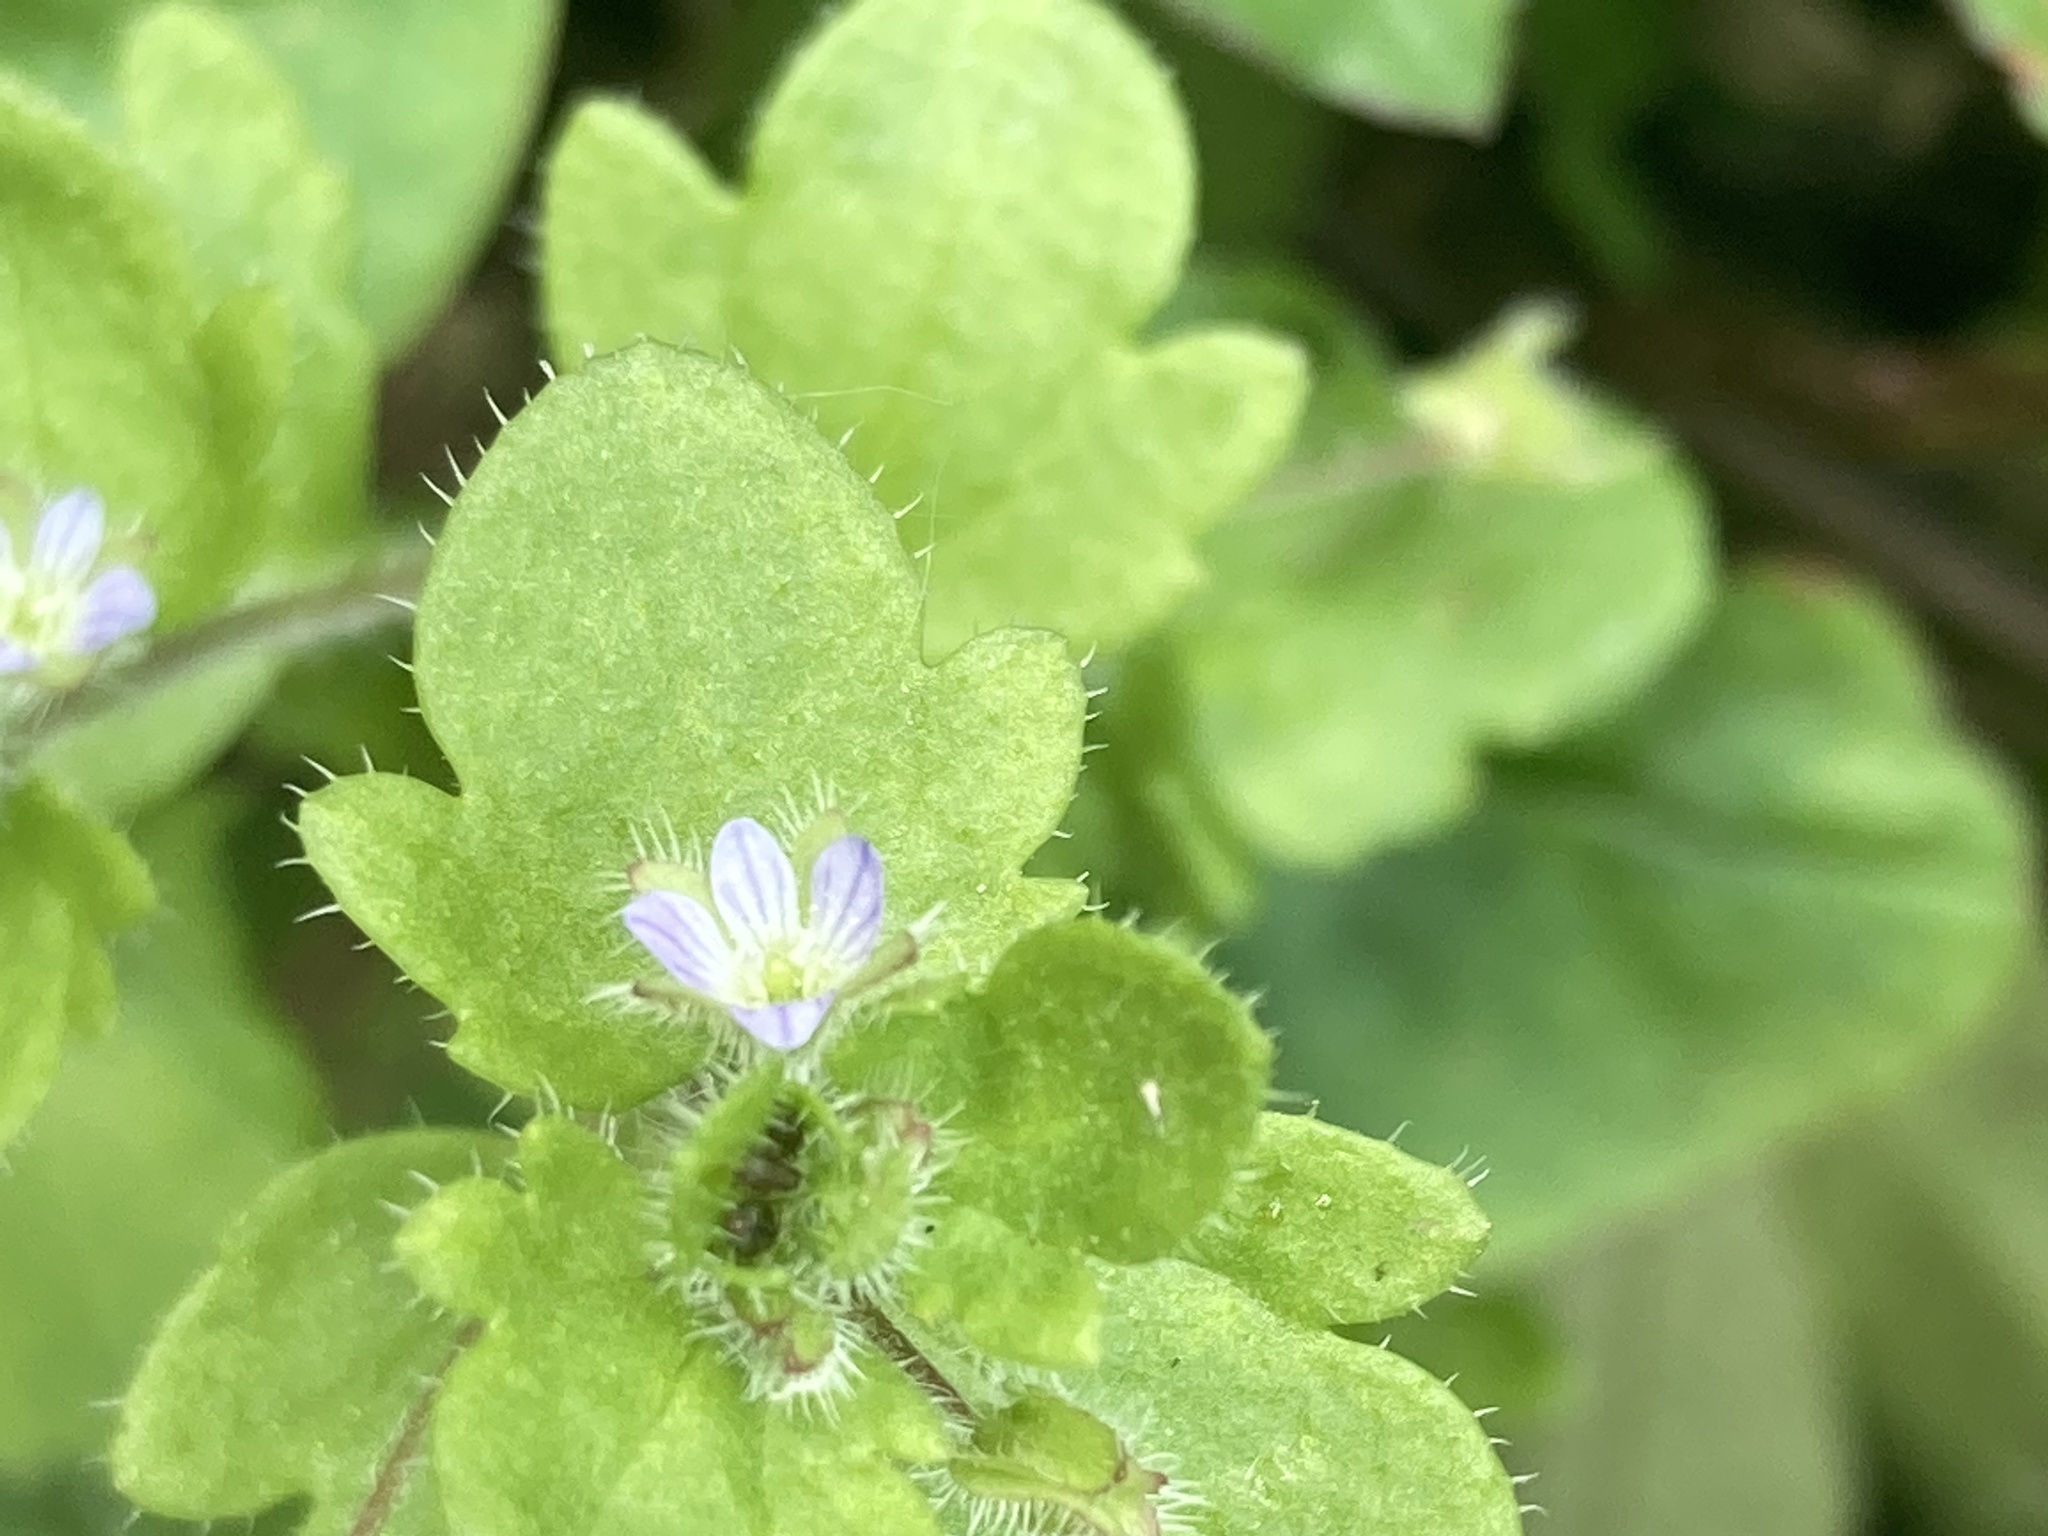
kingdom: Plantae
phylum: Tracheophyta
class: Magnoliopsida
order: Lamiales
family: Plantaginaceae
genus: Veronica
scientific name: Veronica hederifolia
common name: Ivy-leaved speedwell
